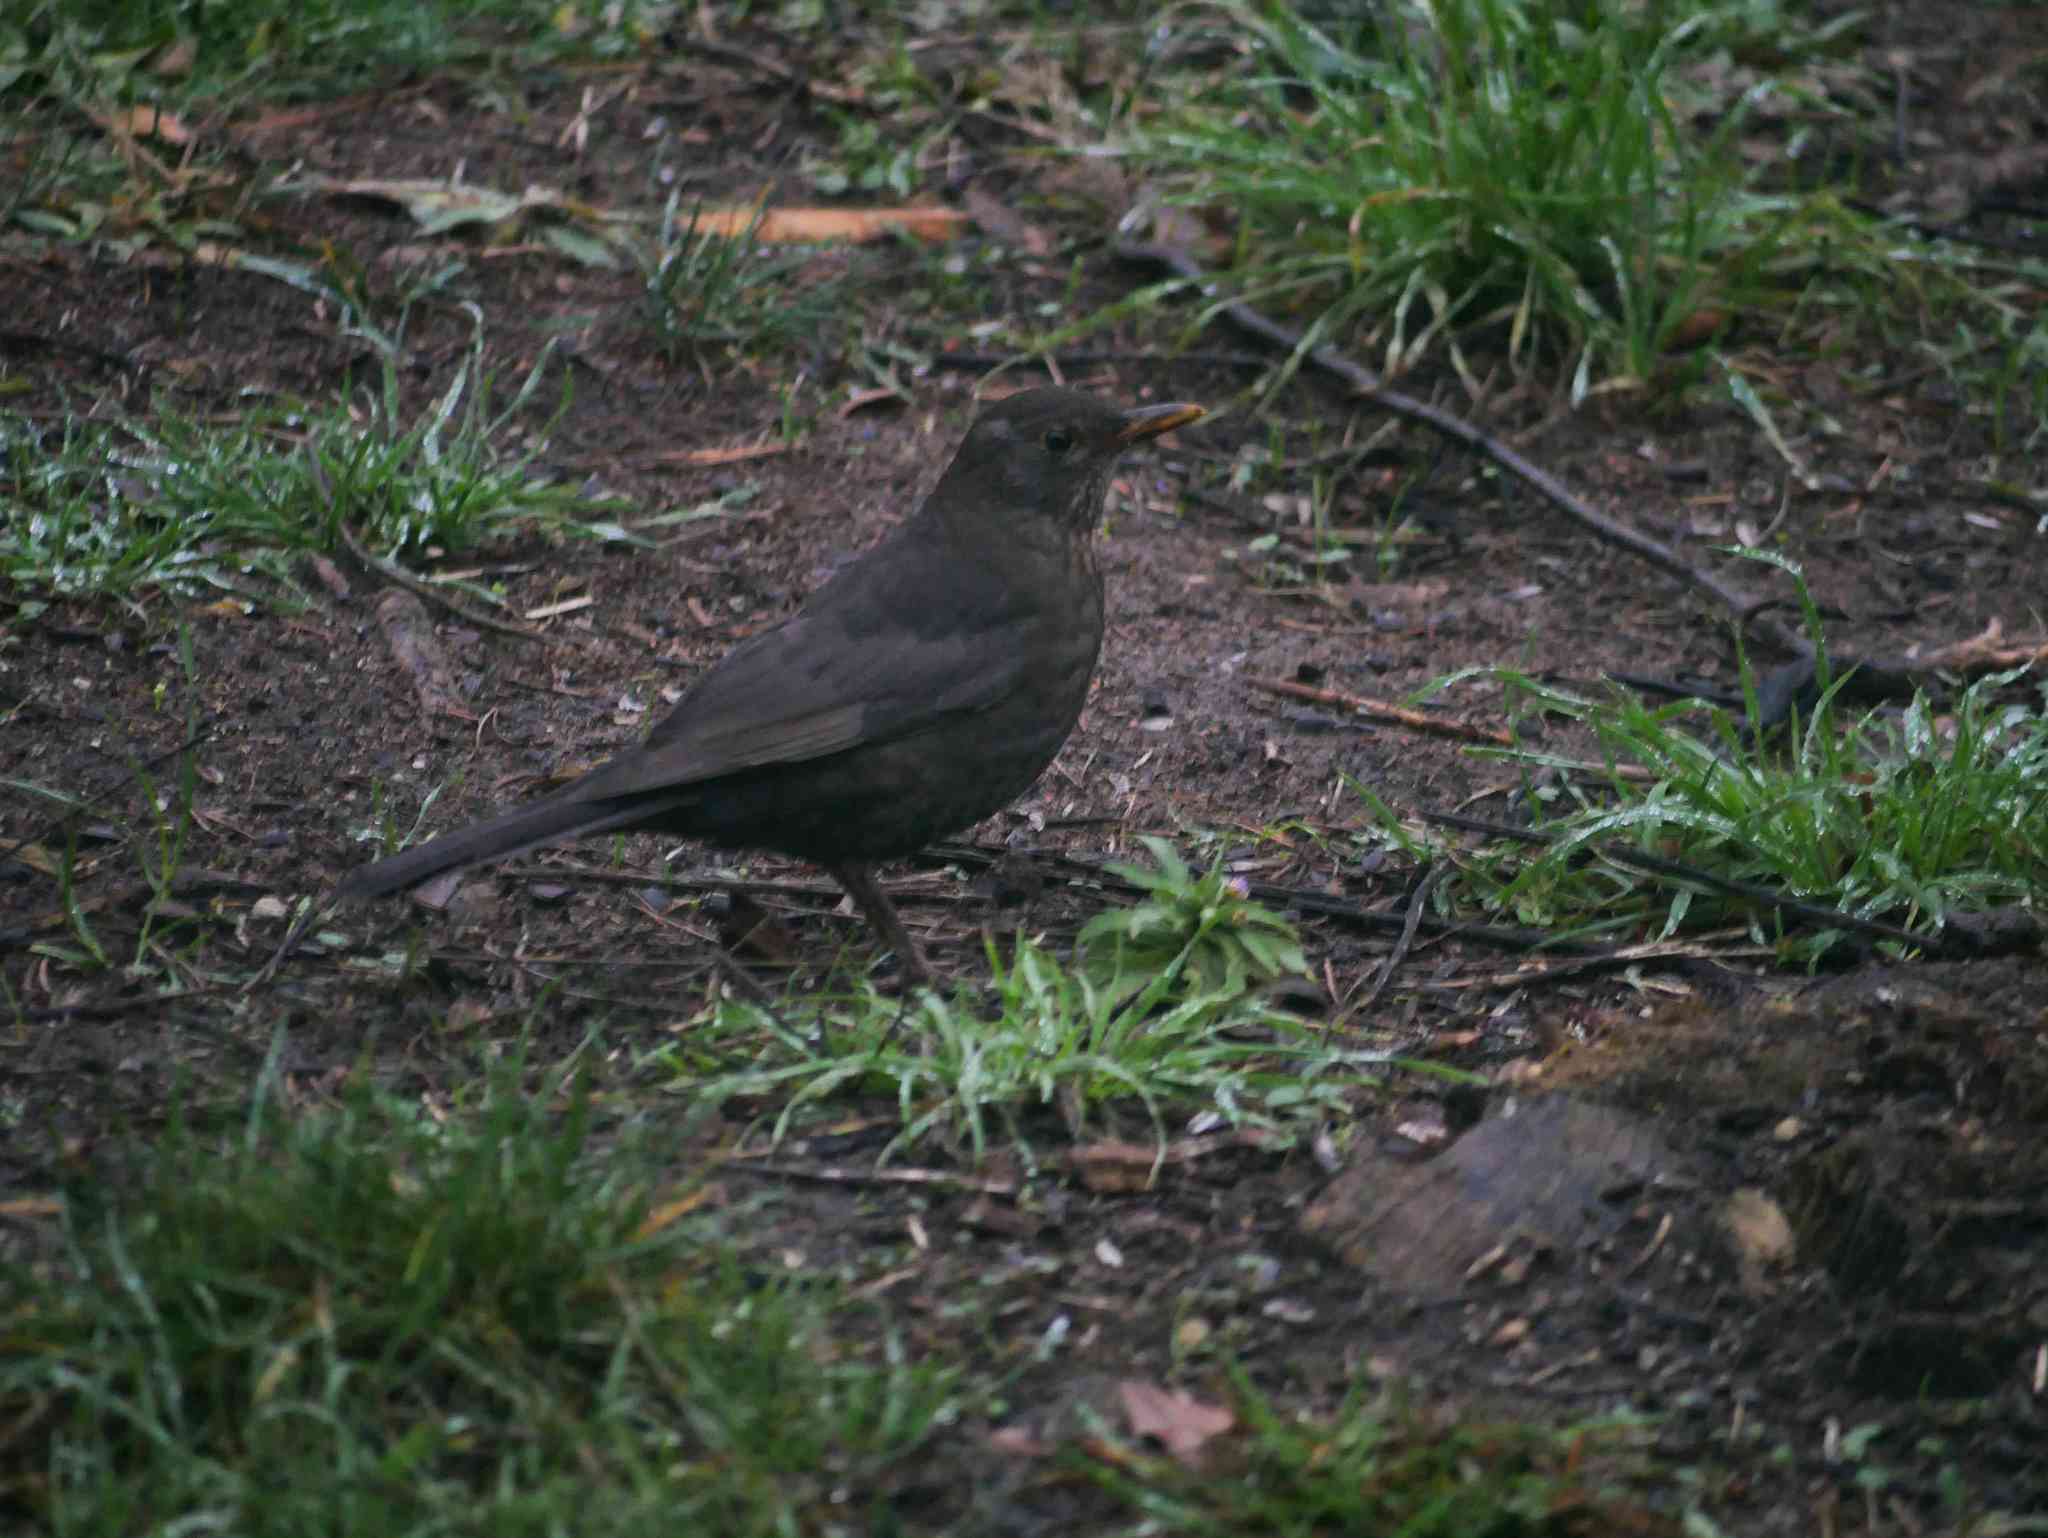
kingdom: Animalia
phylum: Chordata
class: Aves
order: Passeriformes
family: Turdidae
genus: Turdus
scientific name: Turdus merula
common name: Common blackbird
